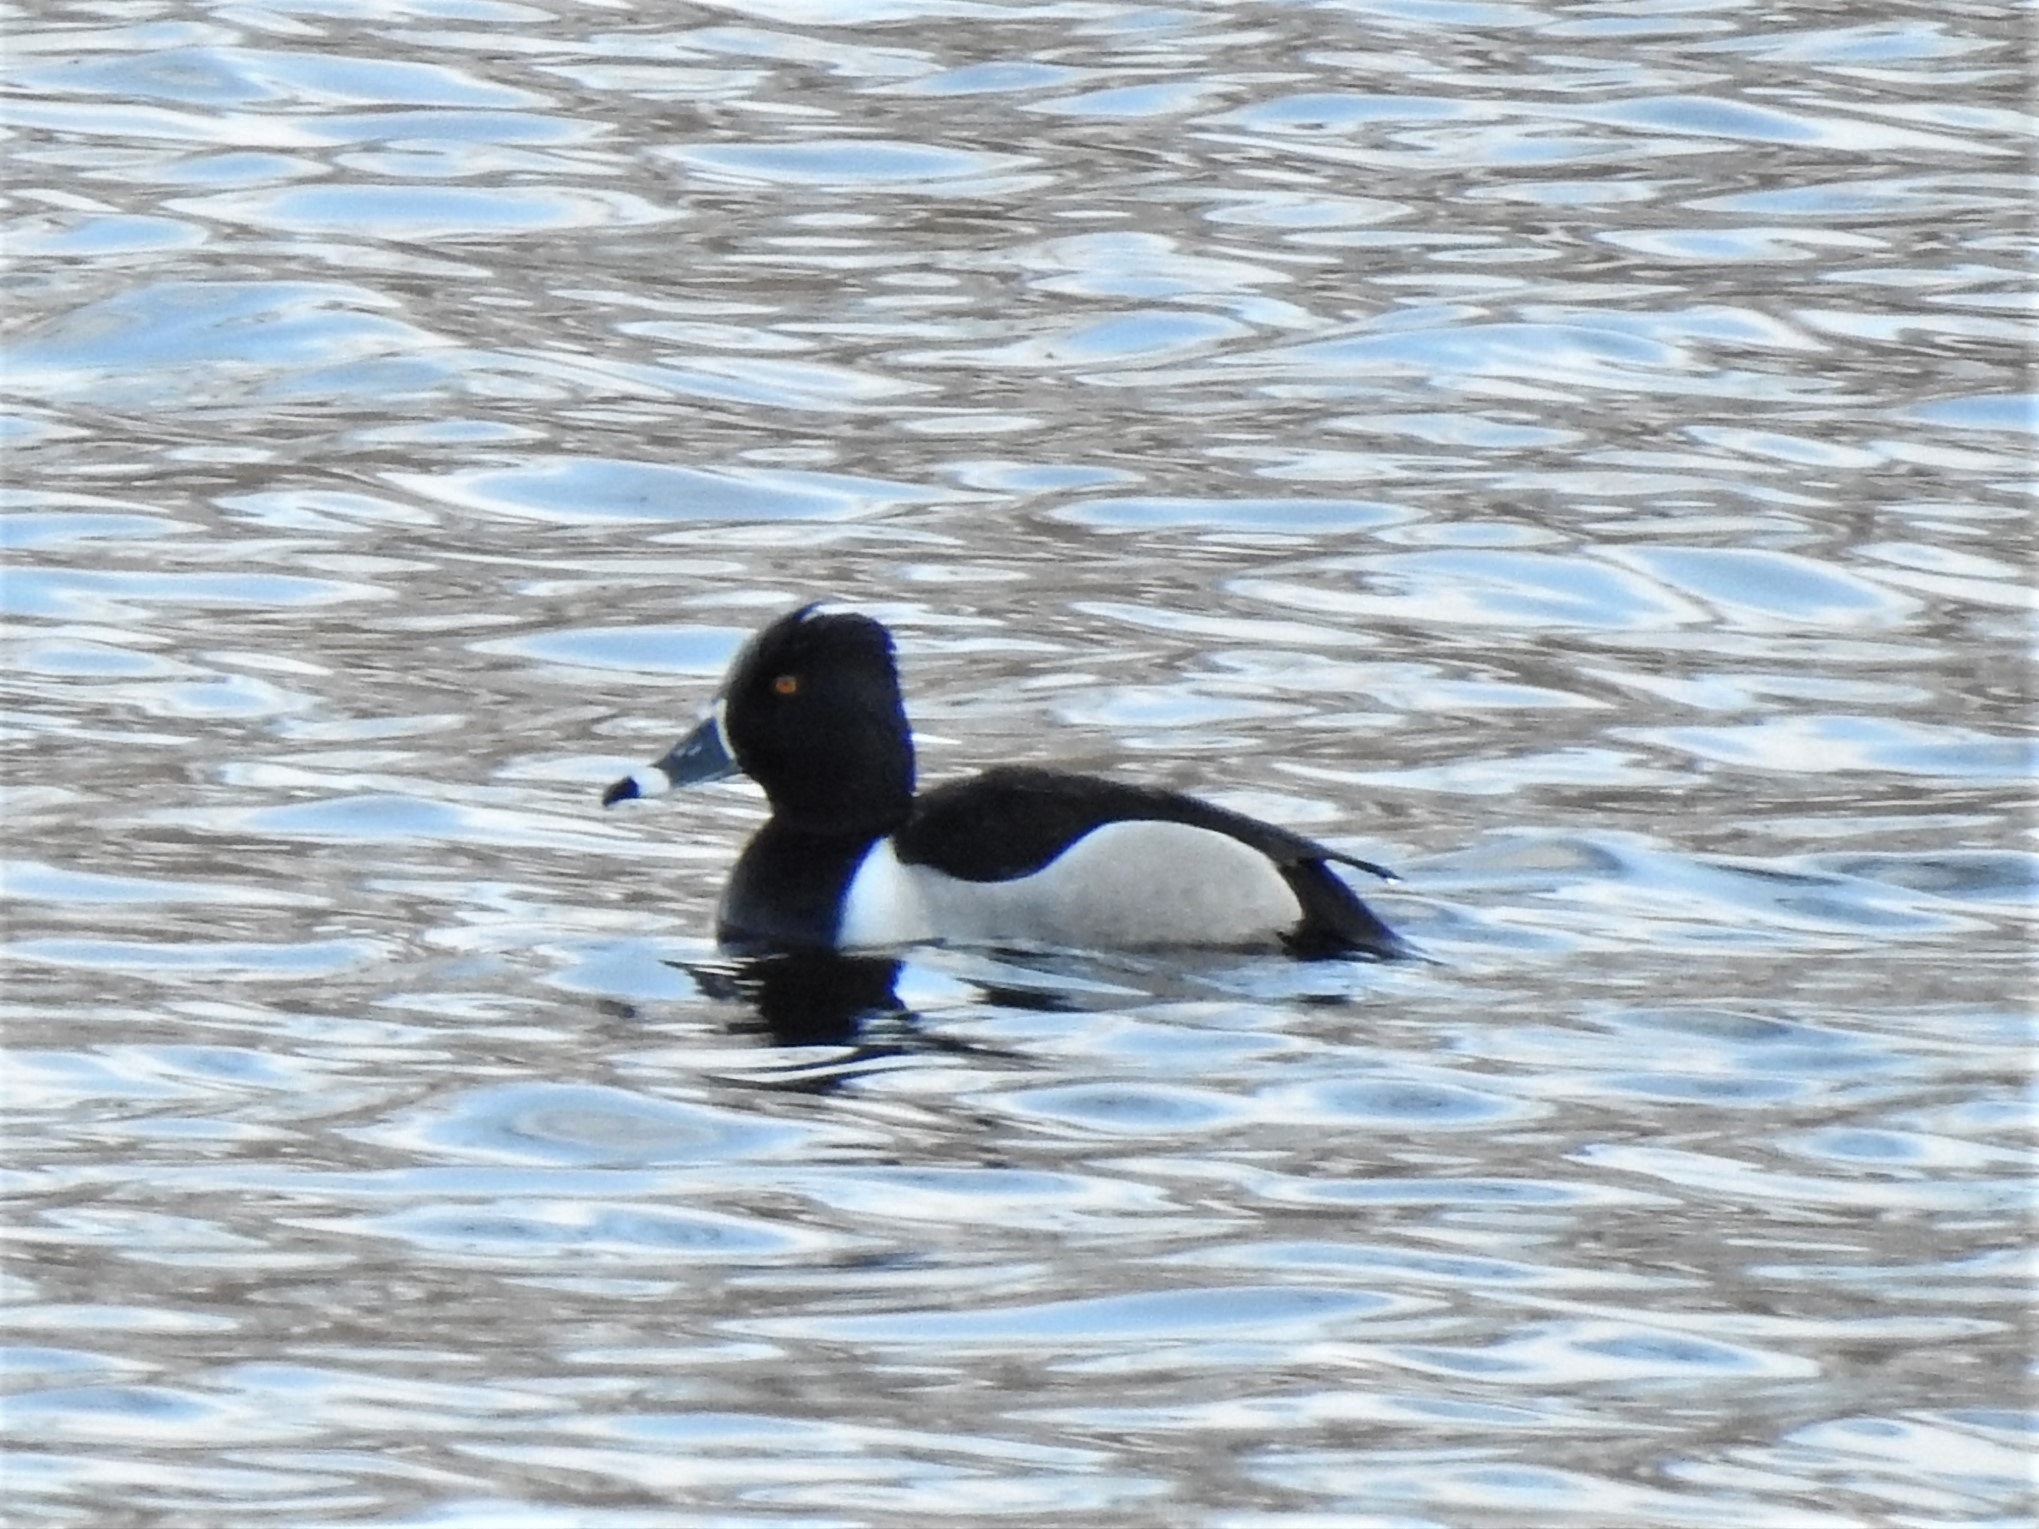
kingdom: Animalia
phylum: Chordata
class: Aves
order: Anseriformes
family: Anatidae
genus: Aythya
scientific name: Aythya collaris
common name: Ring-necked duck
